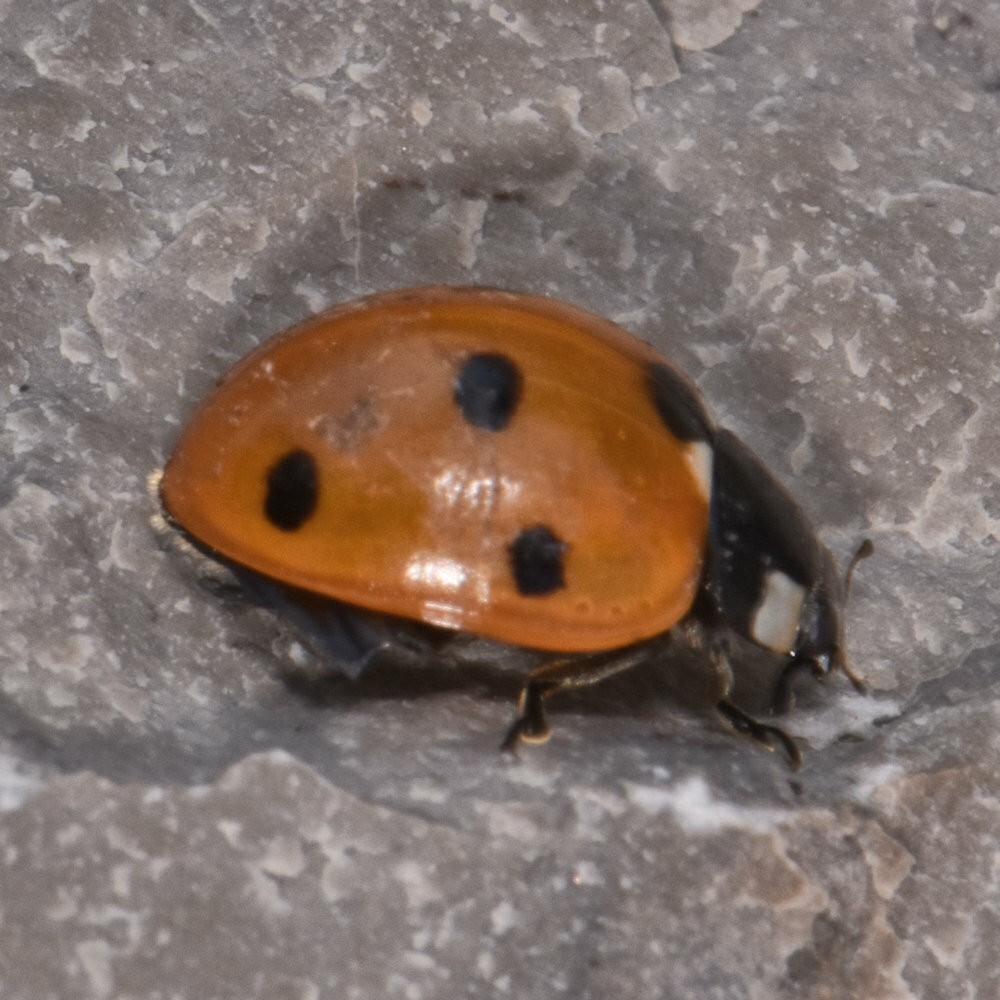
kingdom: Animalia
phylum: Arthropoda
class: Insecta
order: Coleoptera
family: Coccinellidae
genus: Coccinella
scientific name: Coccinella septempunctata
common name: Sevenspotted lady beetle
